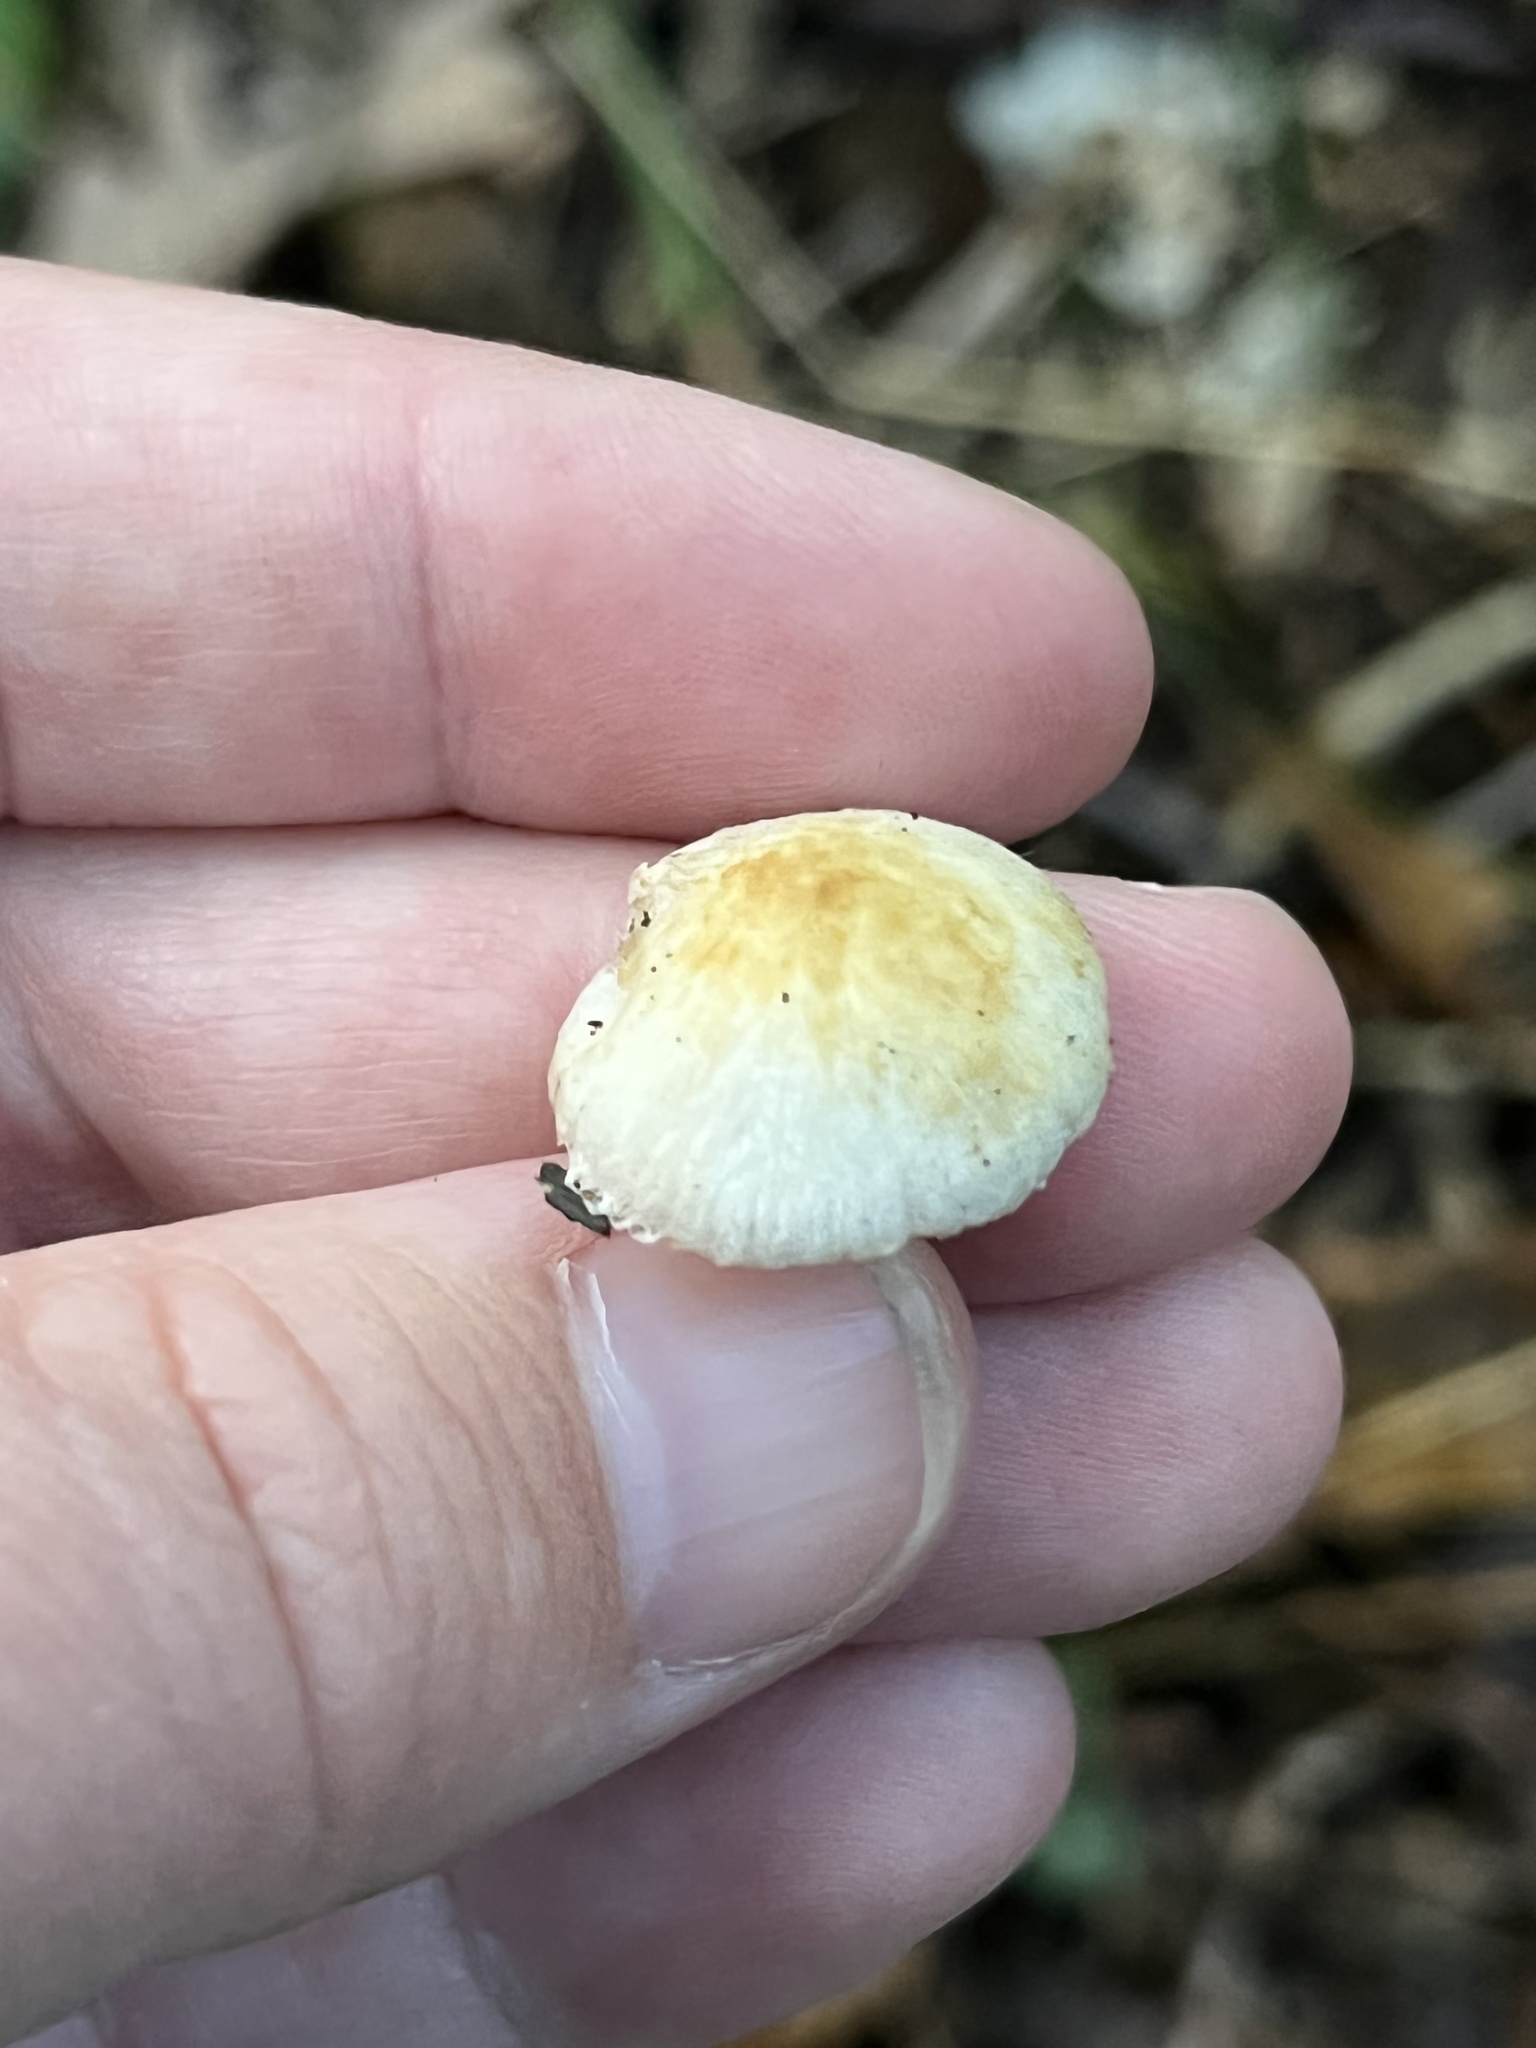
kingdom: Fungi
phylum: Basidiomycota
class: Agaricomycetes
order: Agaricales
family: Marasmiaceae
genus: Marasmius
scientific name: Marasmius strictipes
